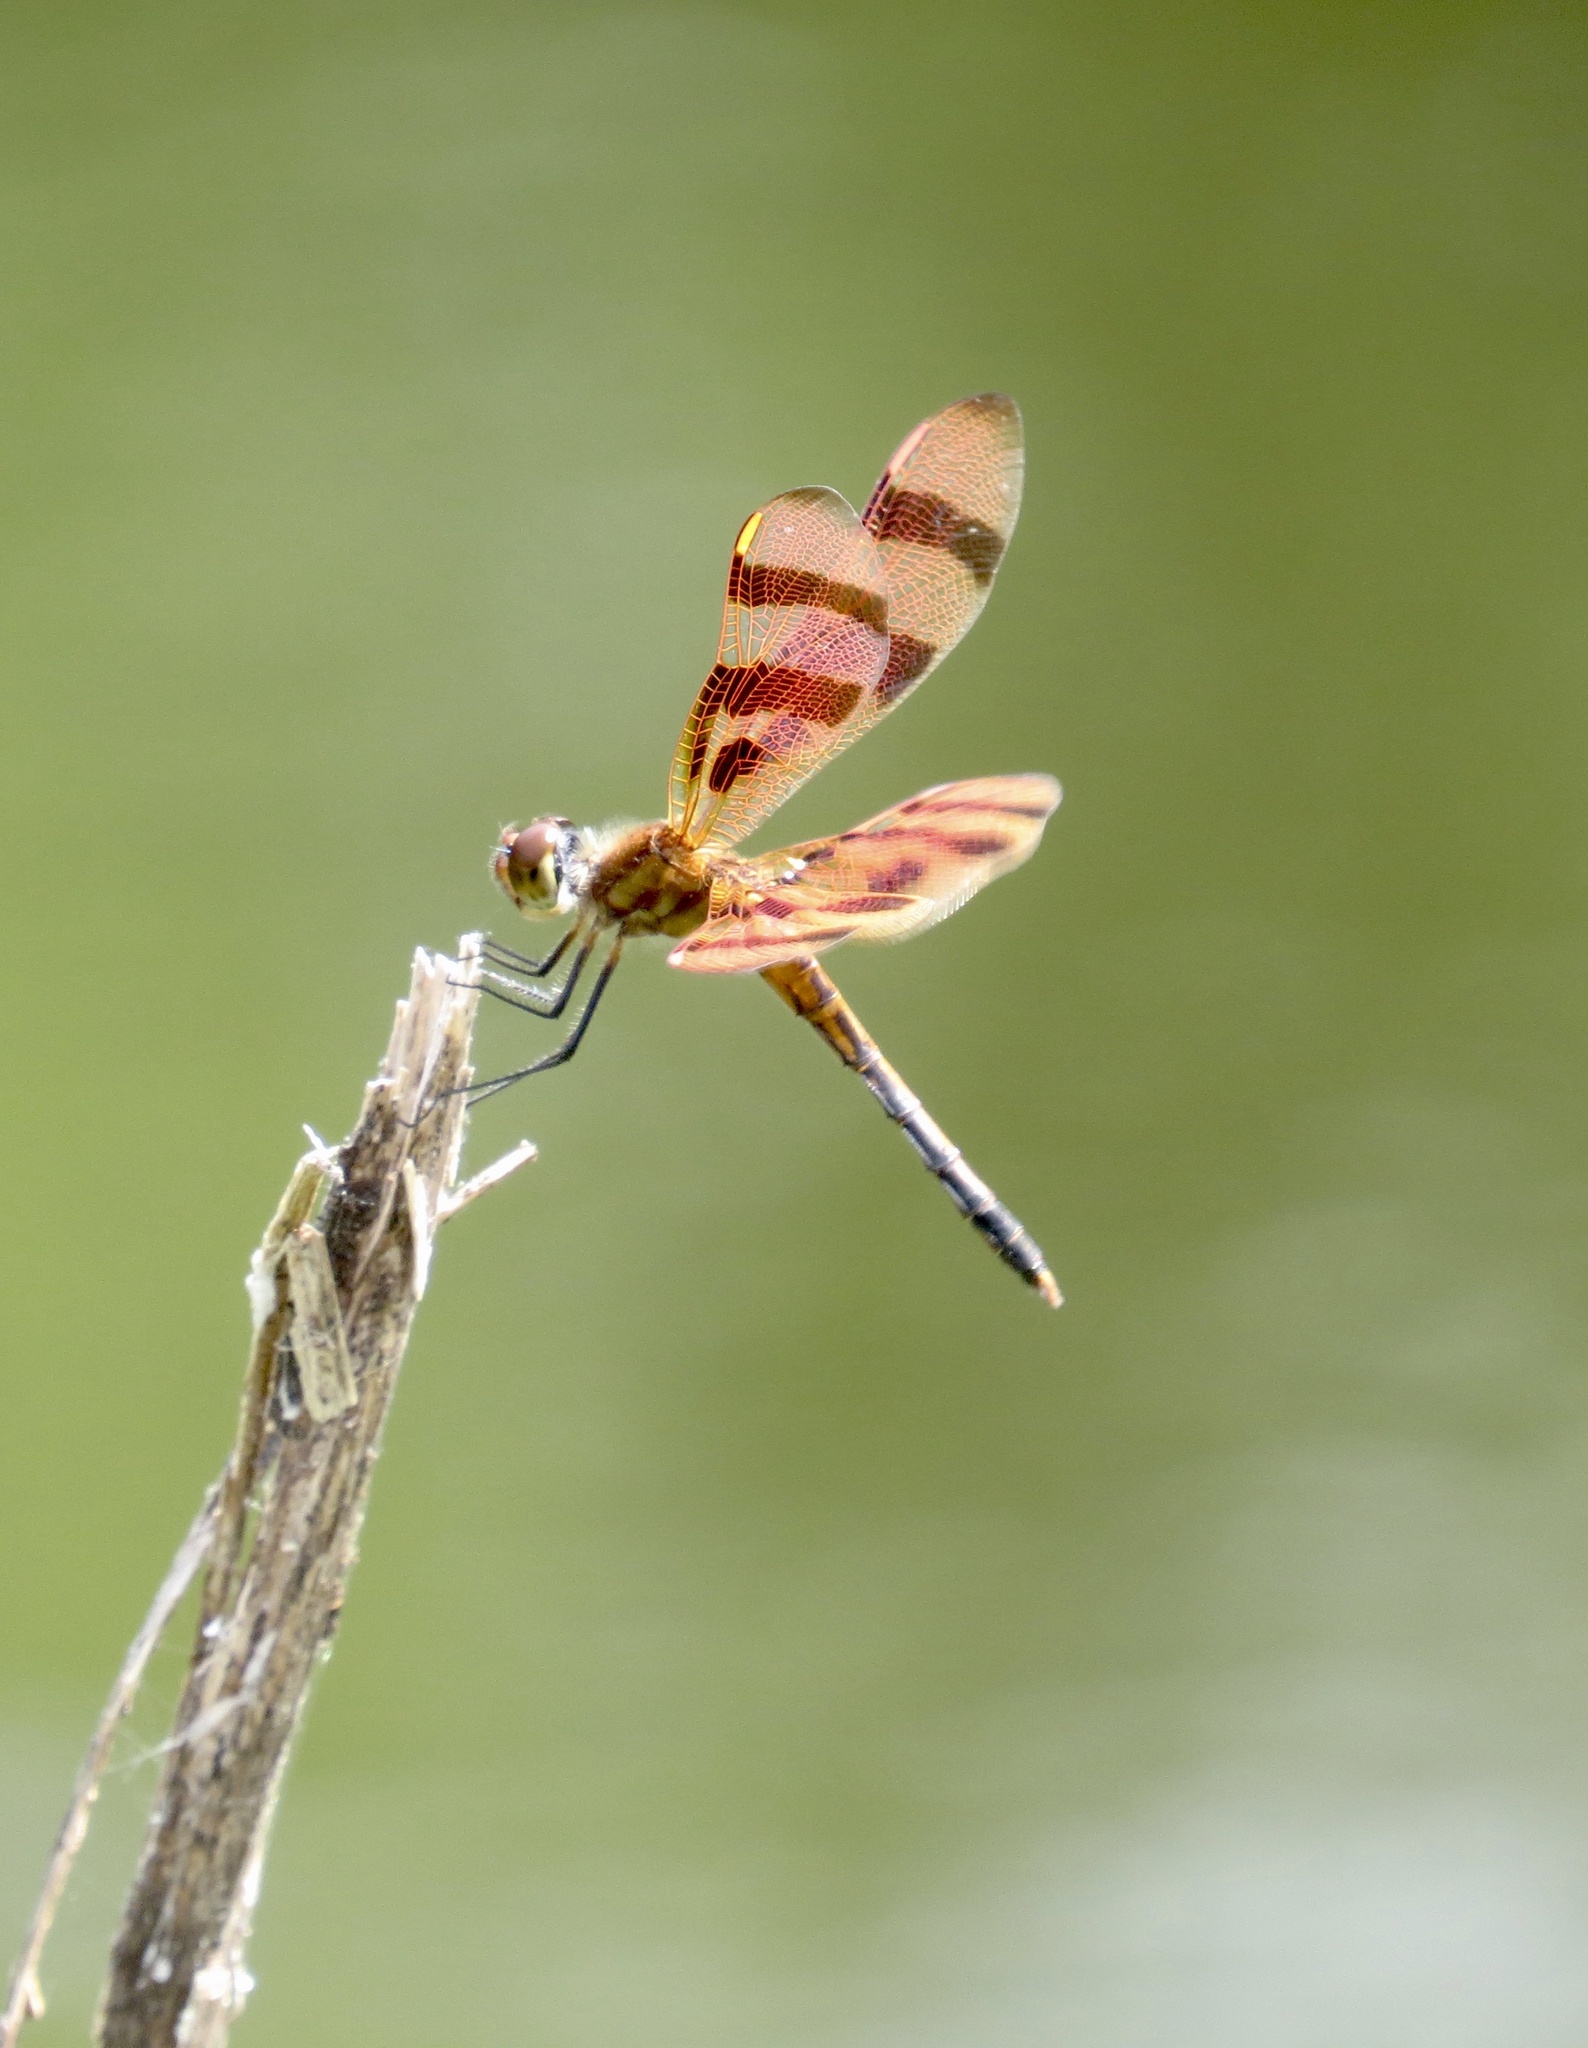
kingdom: Animalia
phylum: Arthropoda
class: Insecta
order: Odonata
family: Libellulidae
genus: Celithemis
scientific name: Celithemis eponina
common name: Halloween pennant
